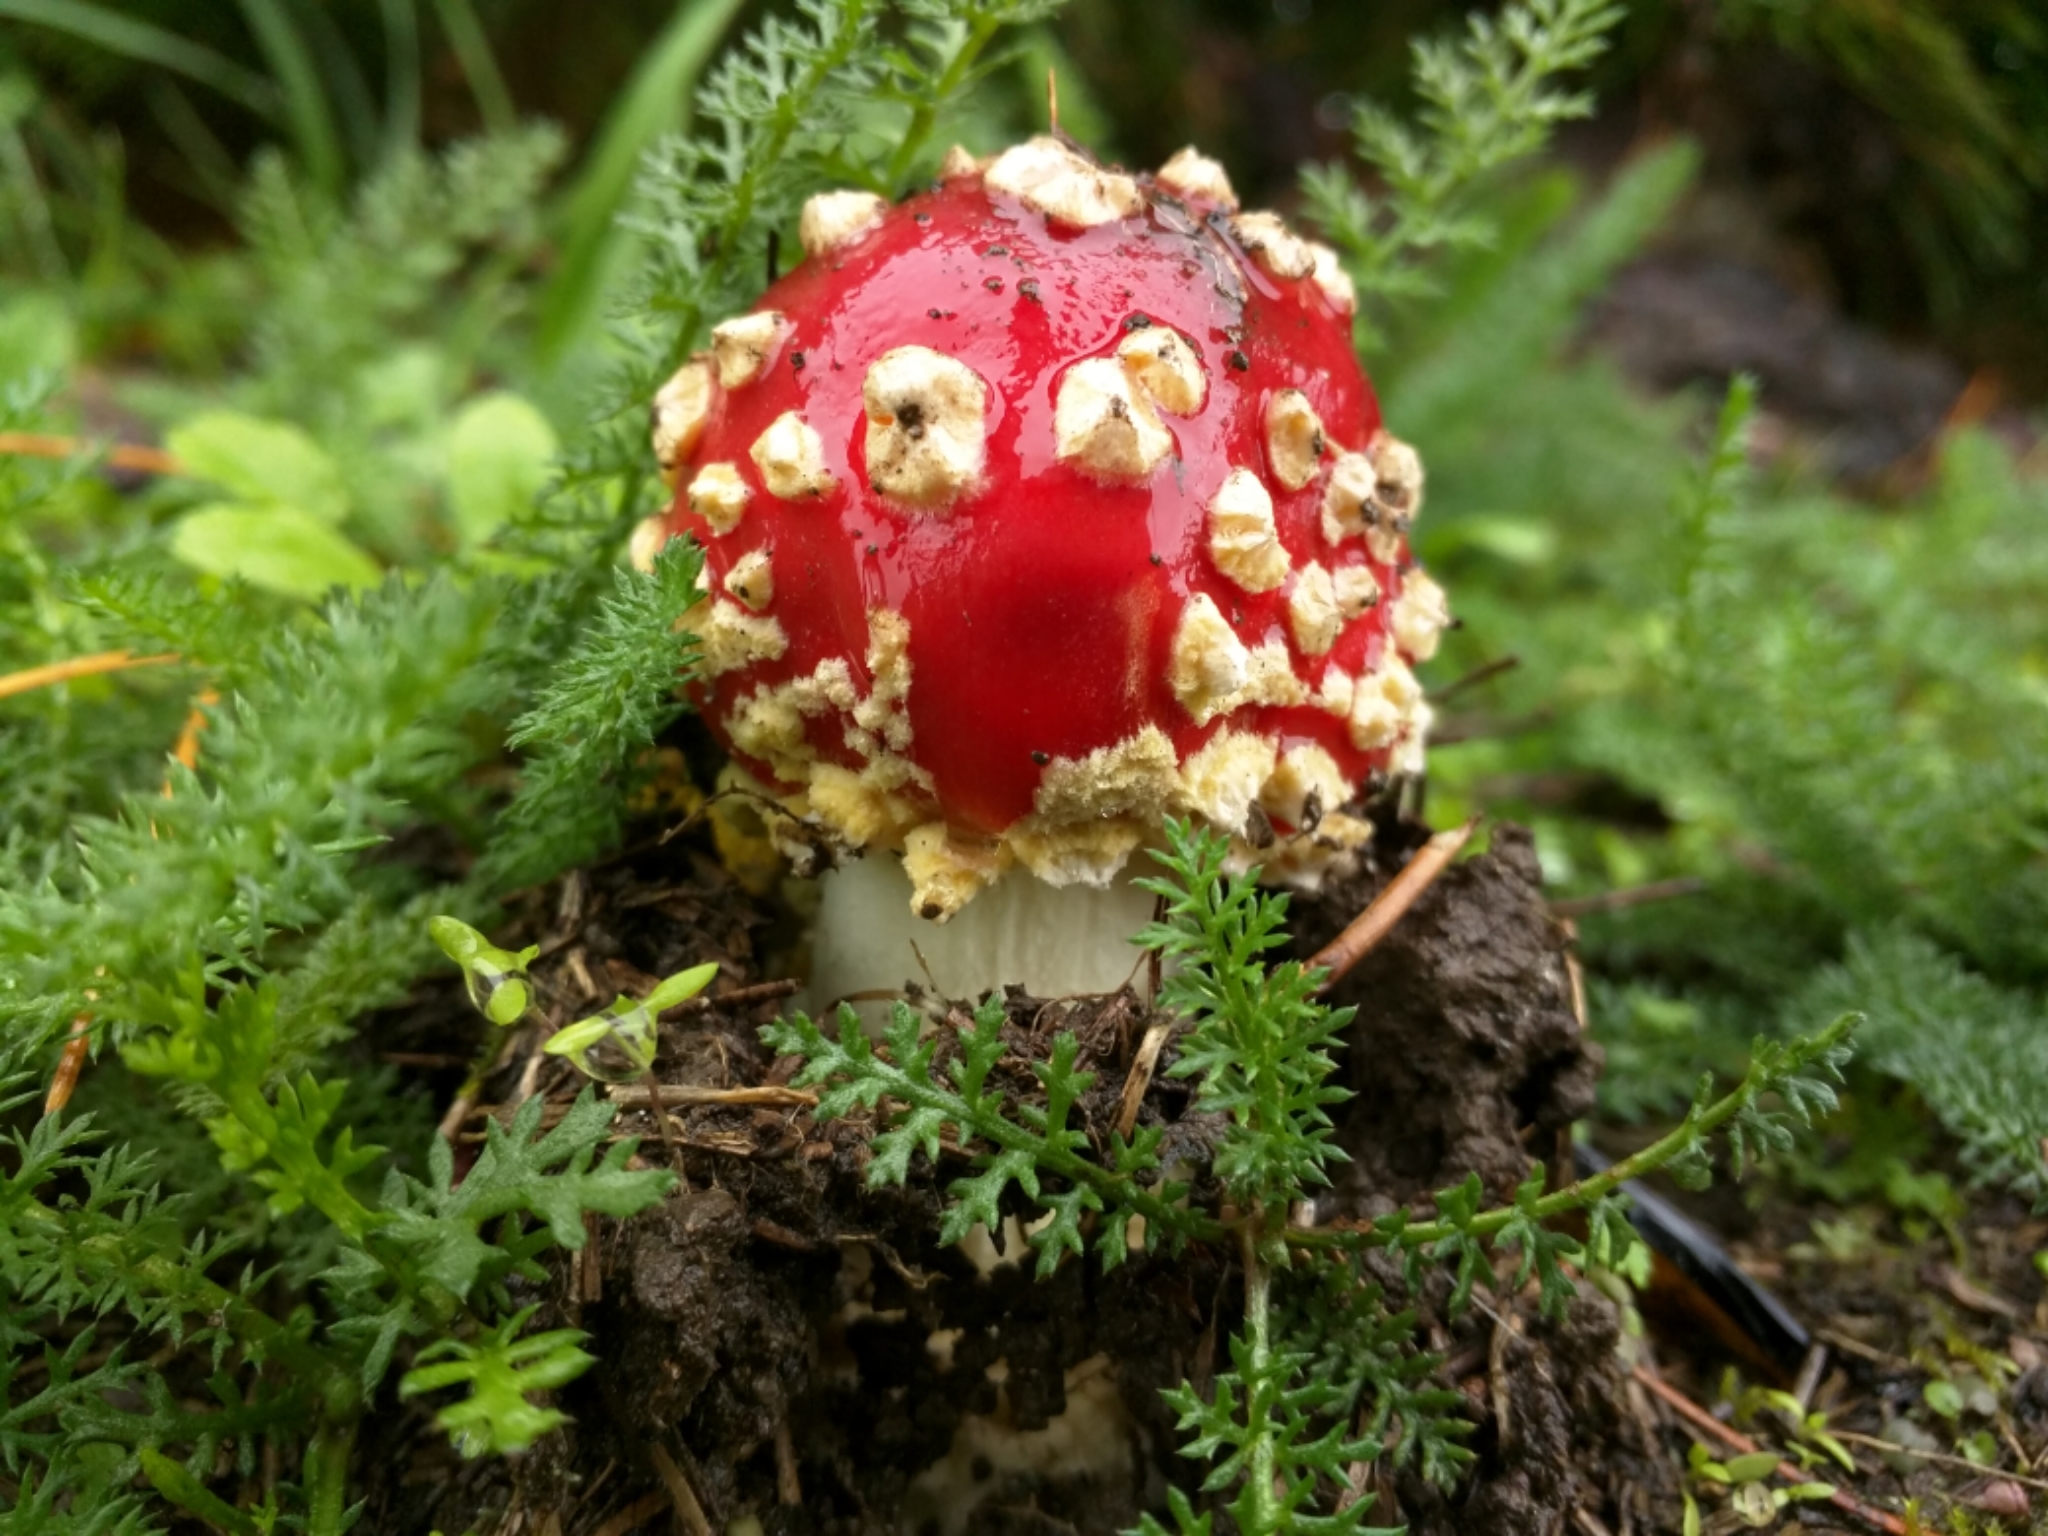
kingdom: Fungi
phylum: Basidiomycota
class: Agaricomycetes
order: Agaricales
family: Amanitaceae
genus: Amanita
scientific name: Amanita muscaria
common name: Fly agaric
